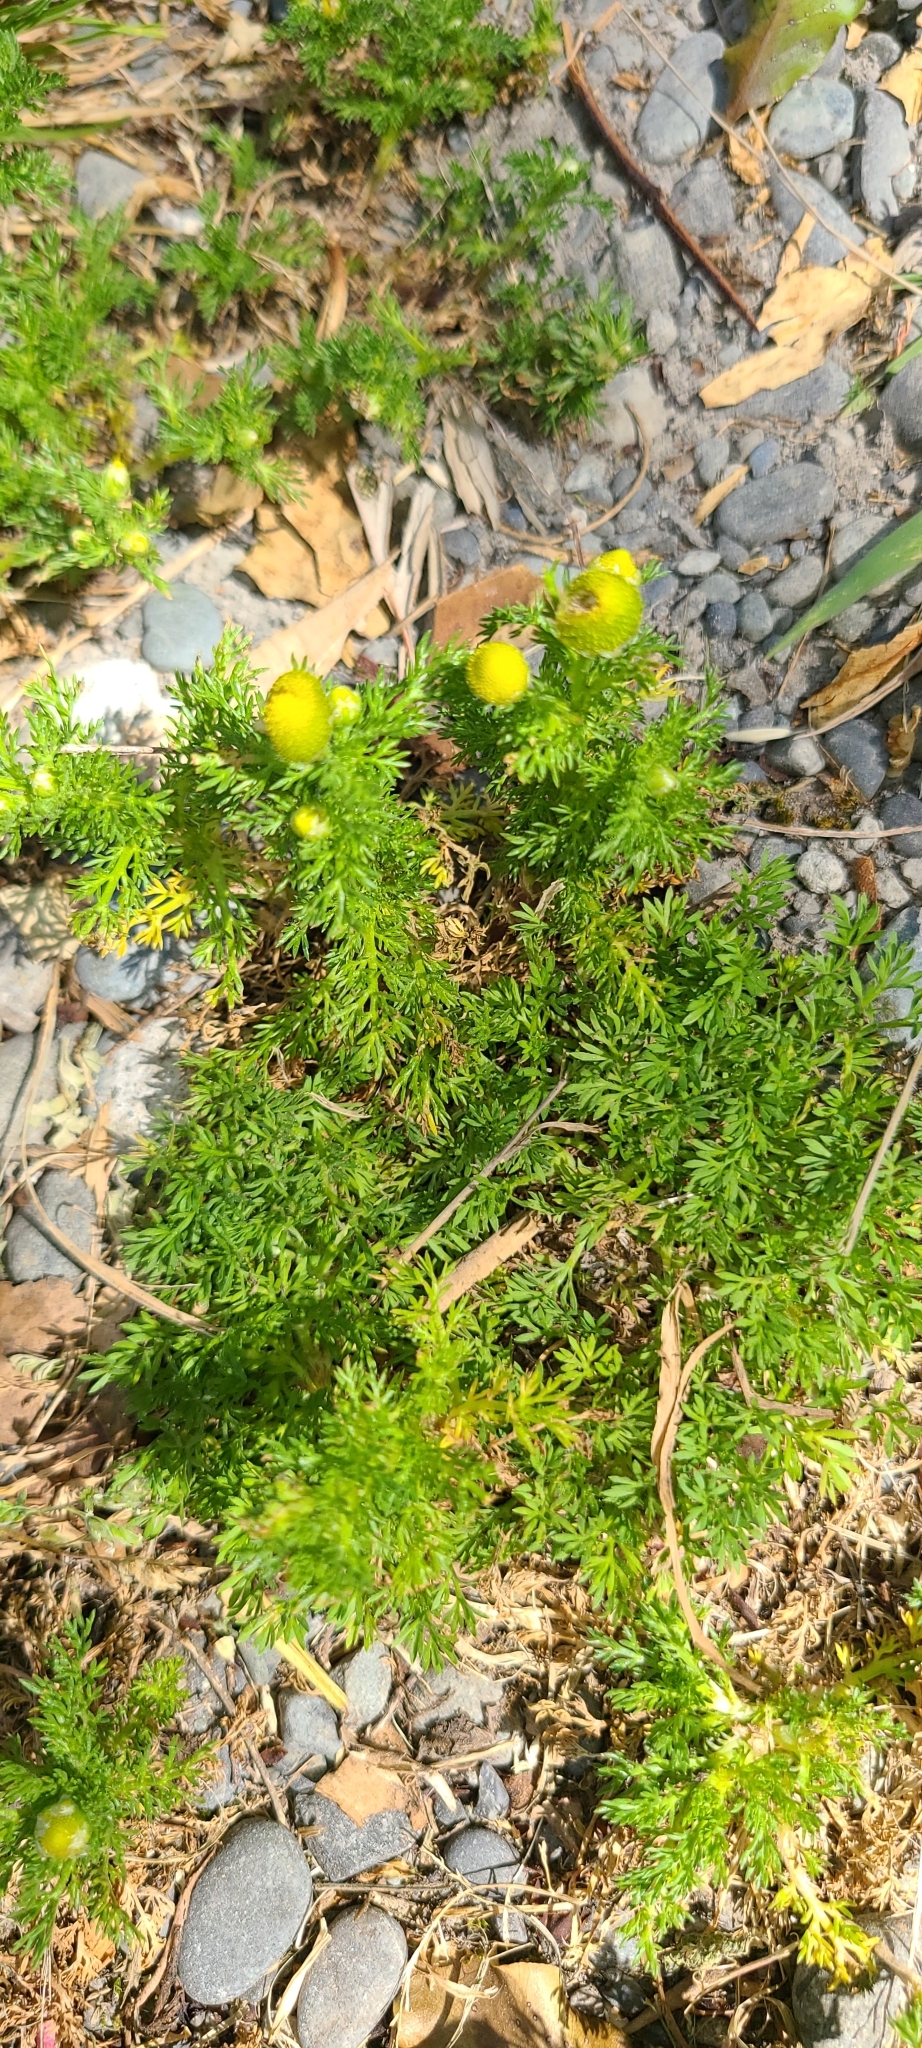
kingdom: Plantae
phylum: Tracheophyta
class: Magnoliopsida
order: Asterales
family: Asteraceae
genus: Matricaria
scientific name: Matricaria discoidea
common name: Disc mayweed
